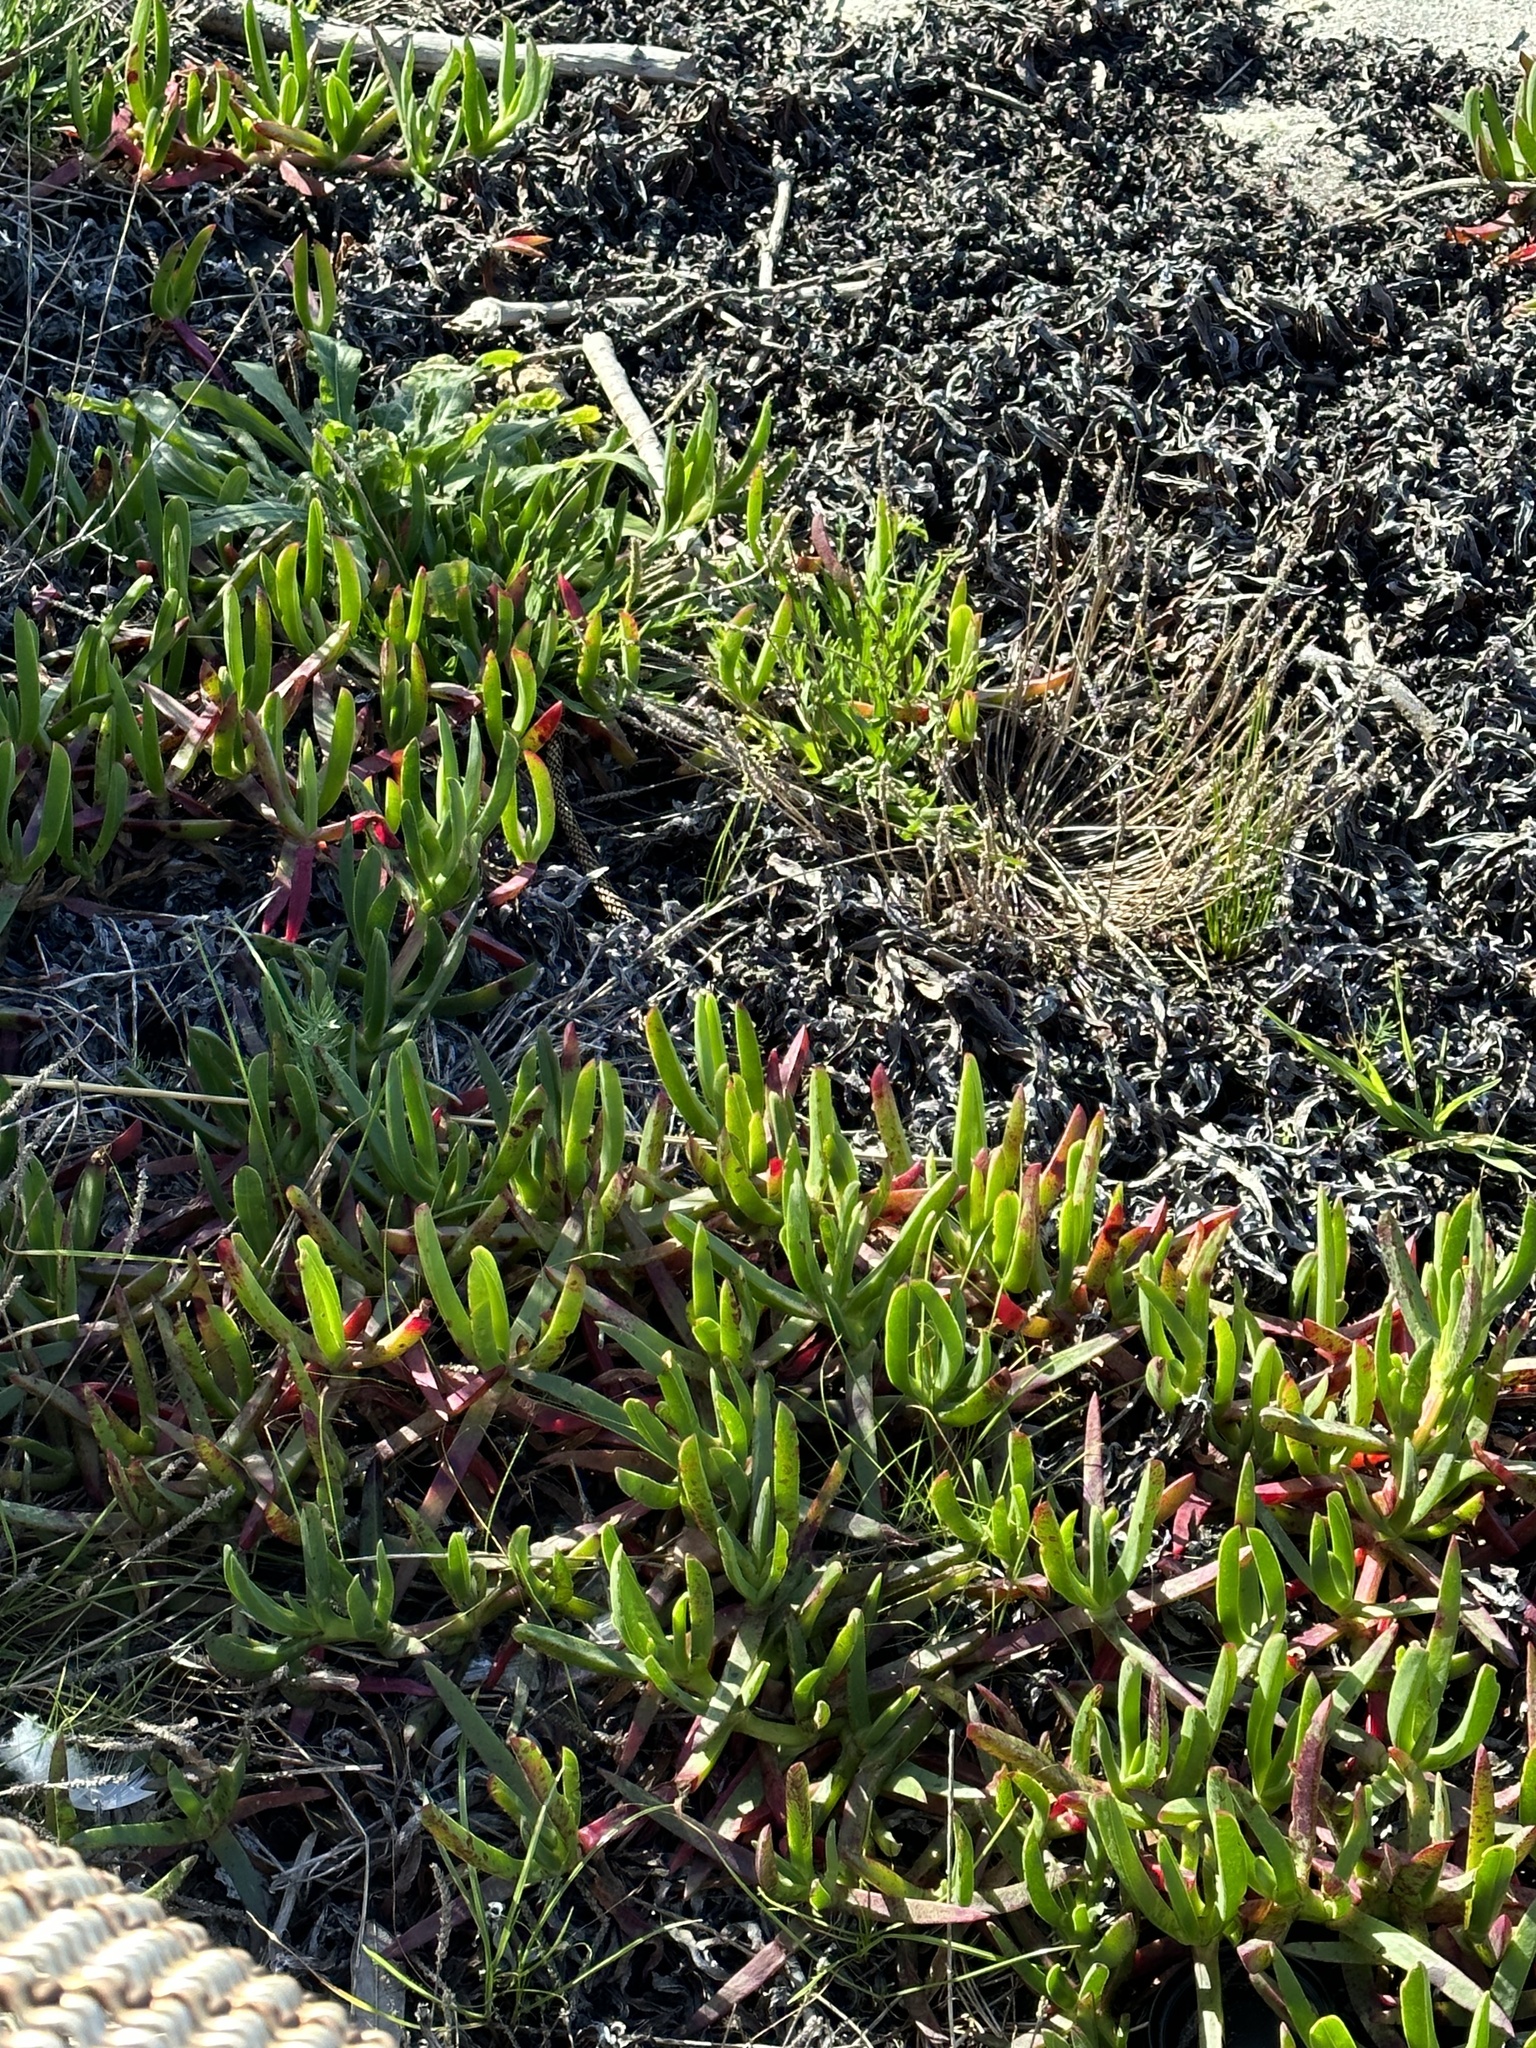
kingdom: Plantae
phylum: Tracheophyta
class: Magnoliopsida
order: Caryophyllales
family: Aizoaceae
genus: Carpobrotus
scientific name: Carpobrotus glaucescens
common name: Angular sea-fig
